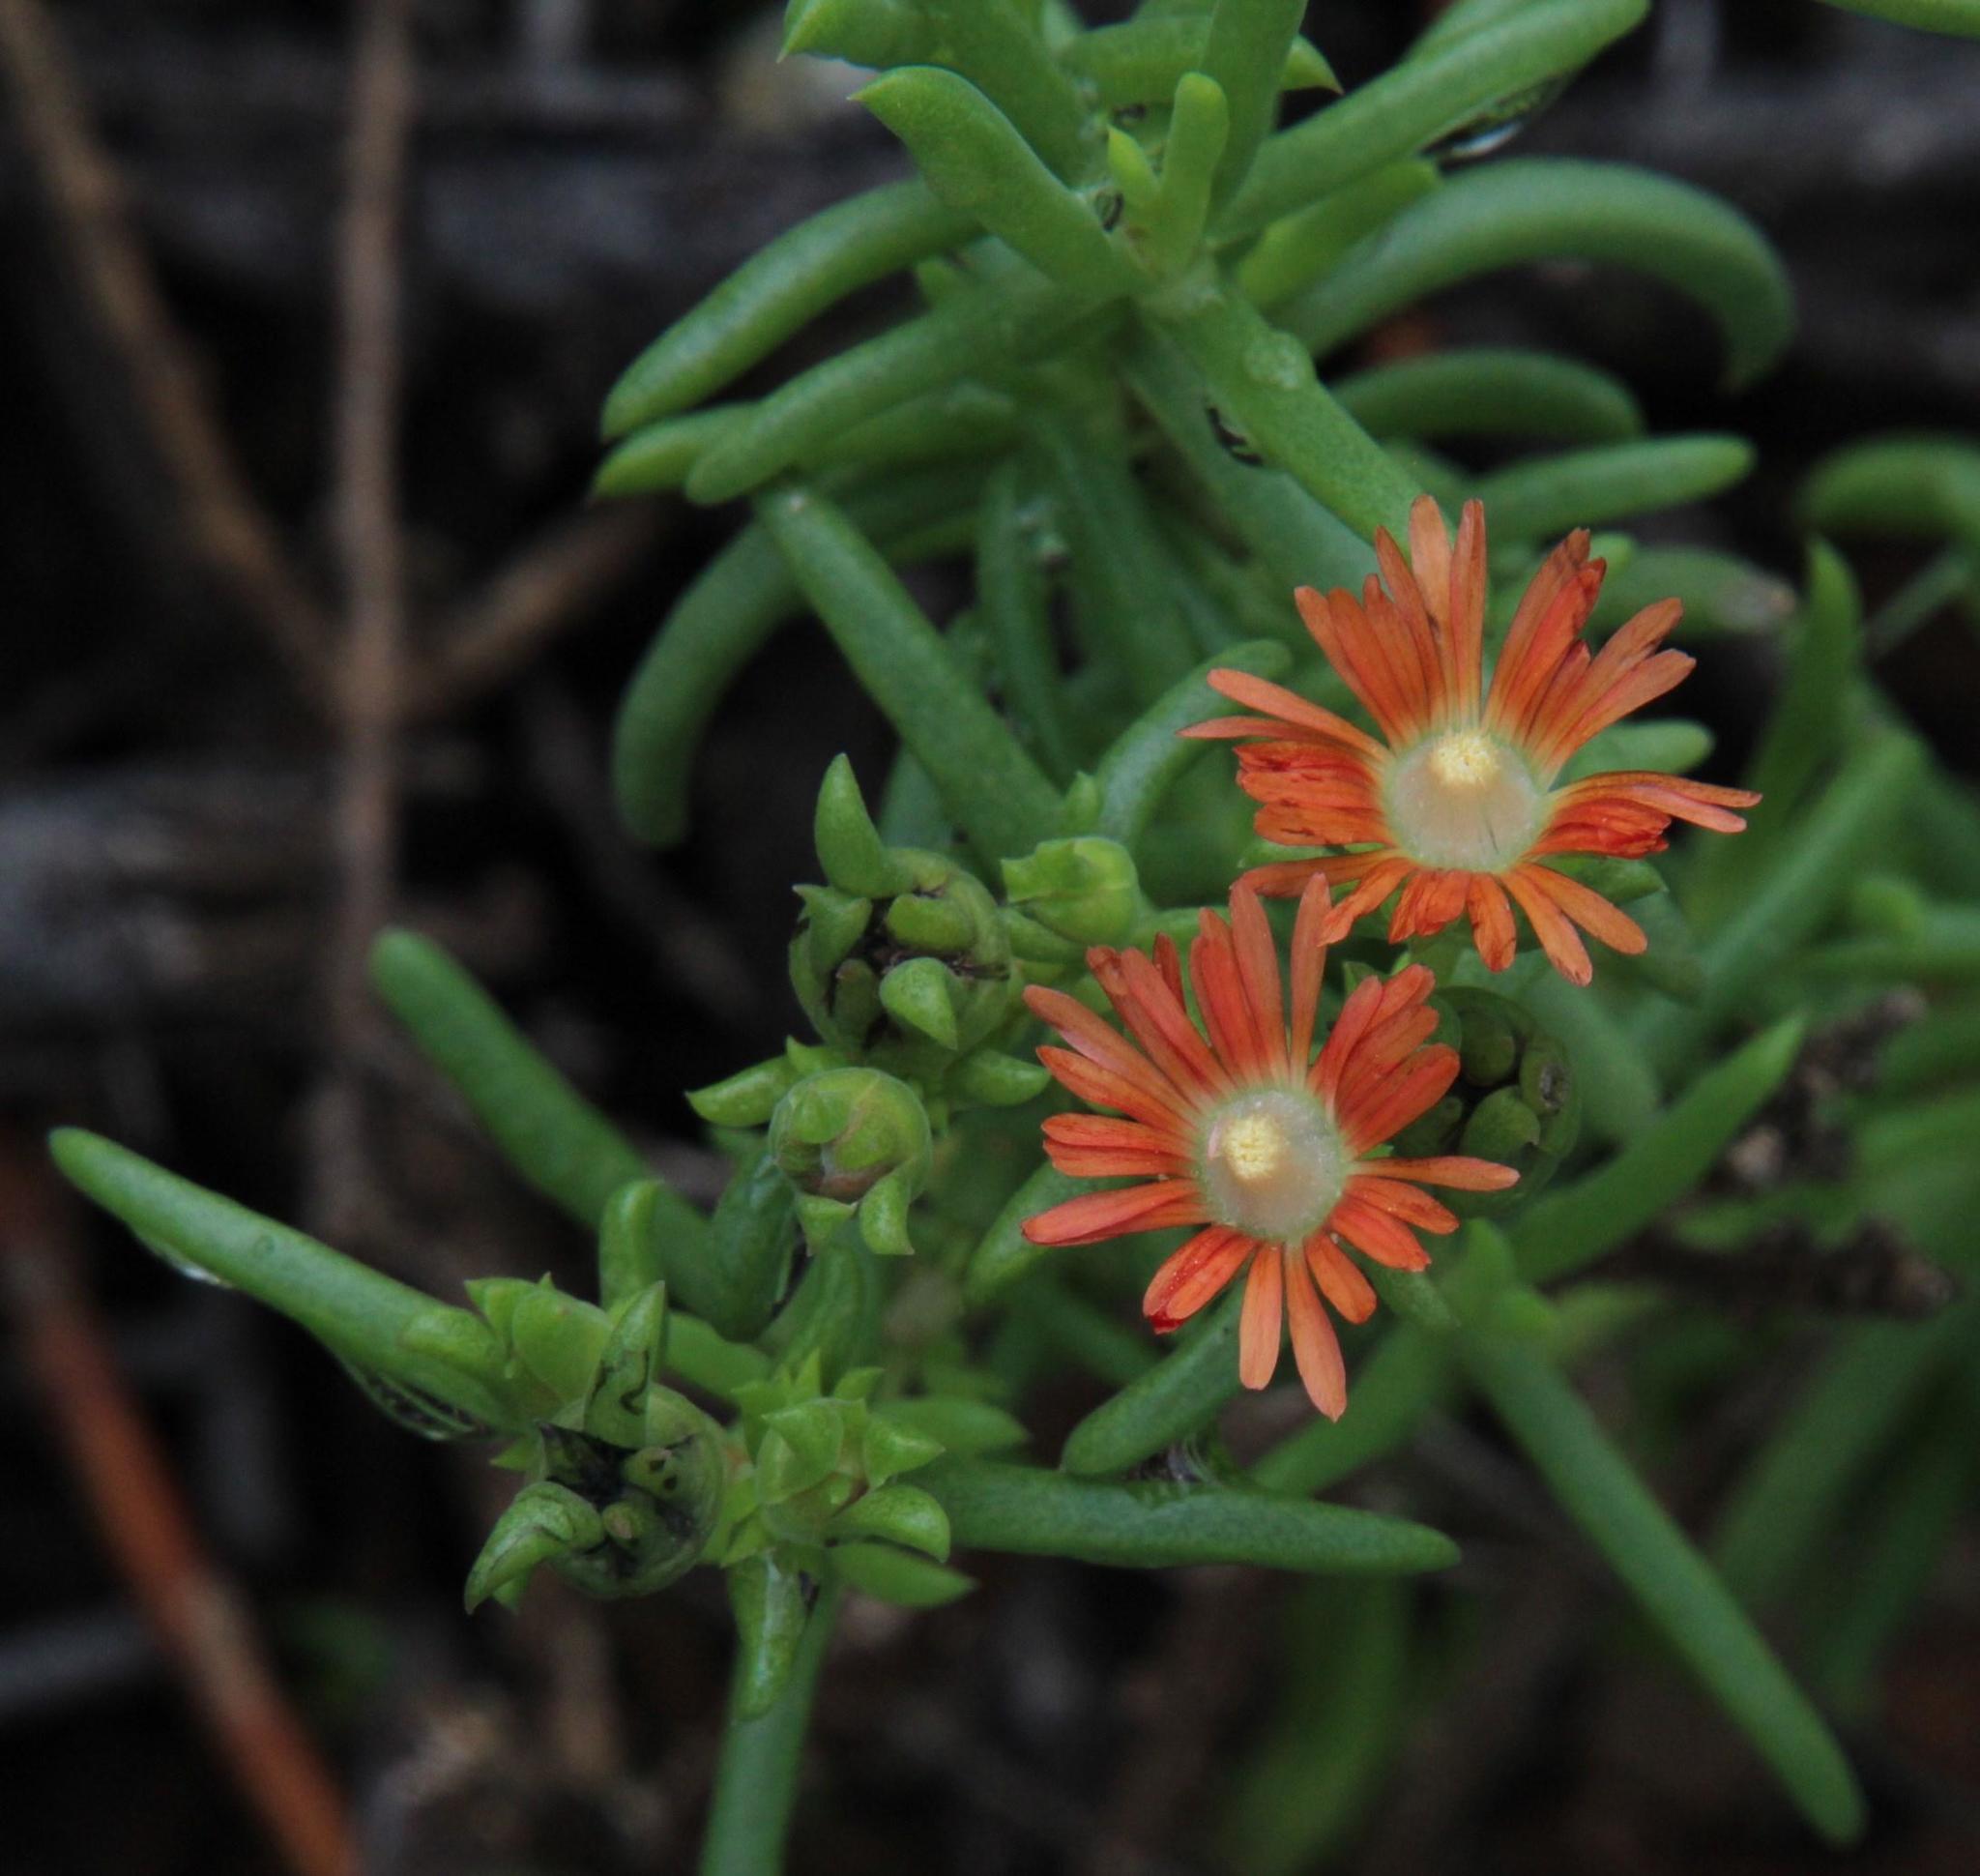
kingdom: Plantae
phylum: Tracheophyta
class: Magnoliopsida
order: Caryophyllales
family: Aizoaceae
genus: Delosperma
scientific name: Delosperma multiflorum
